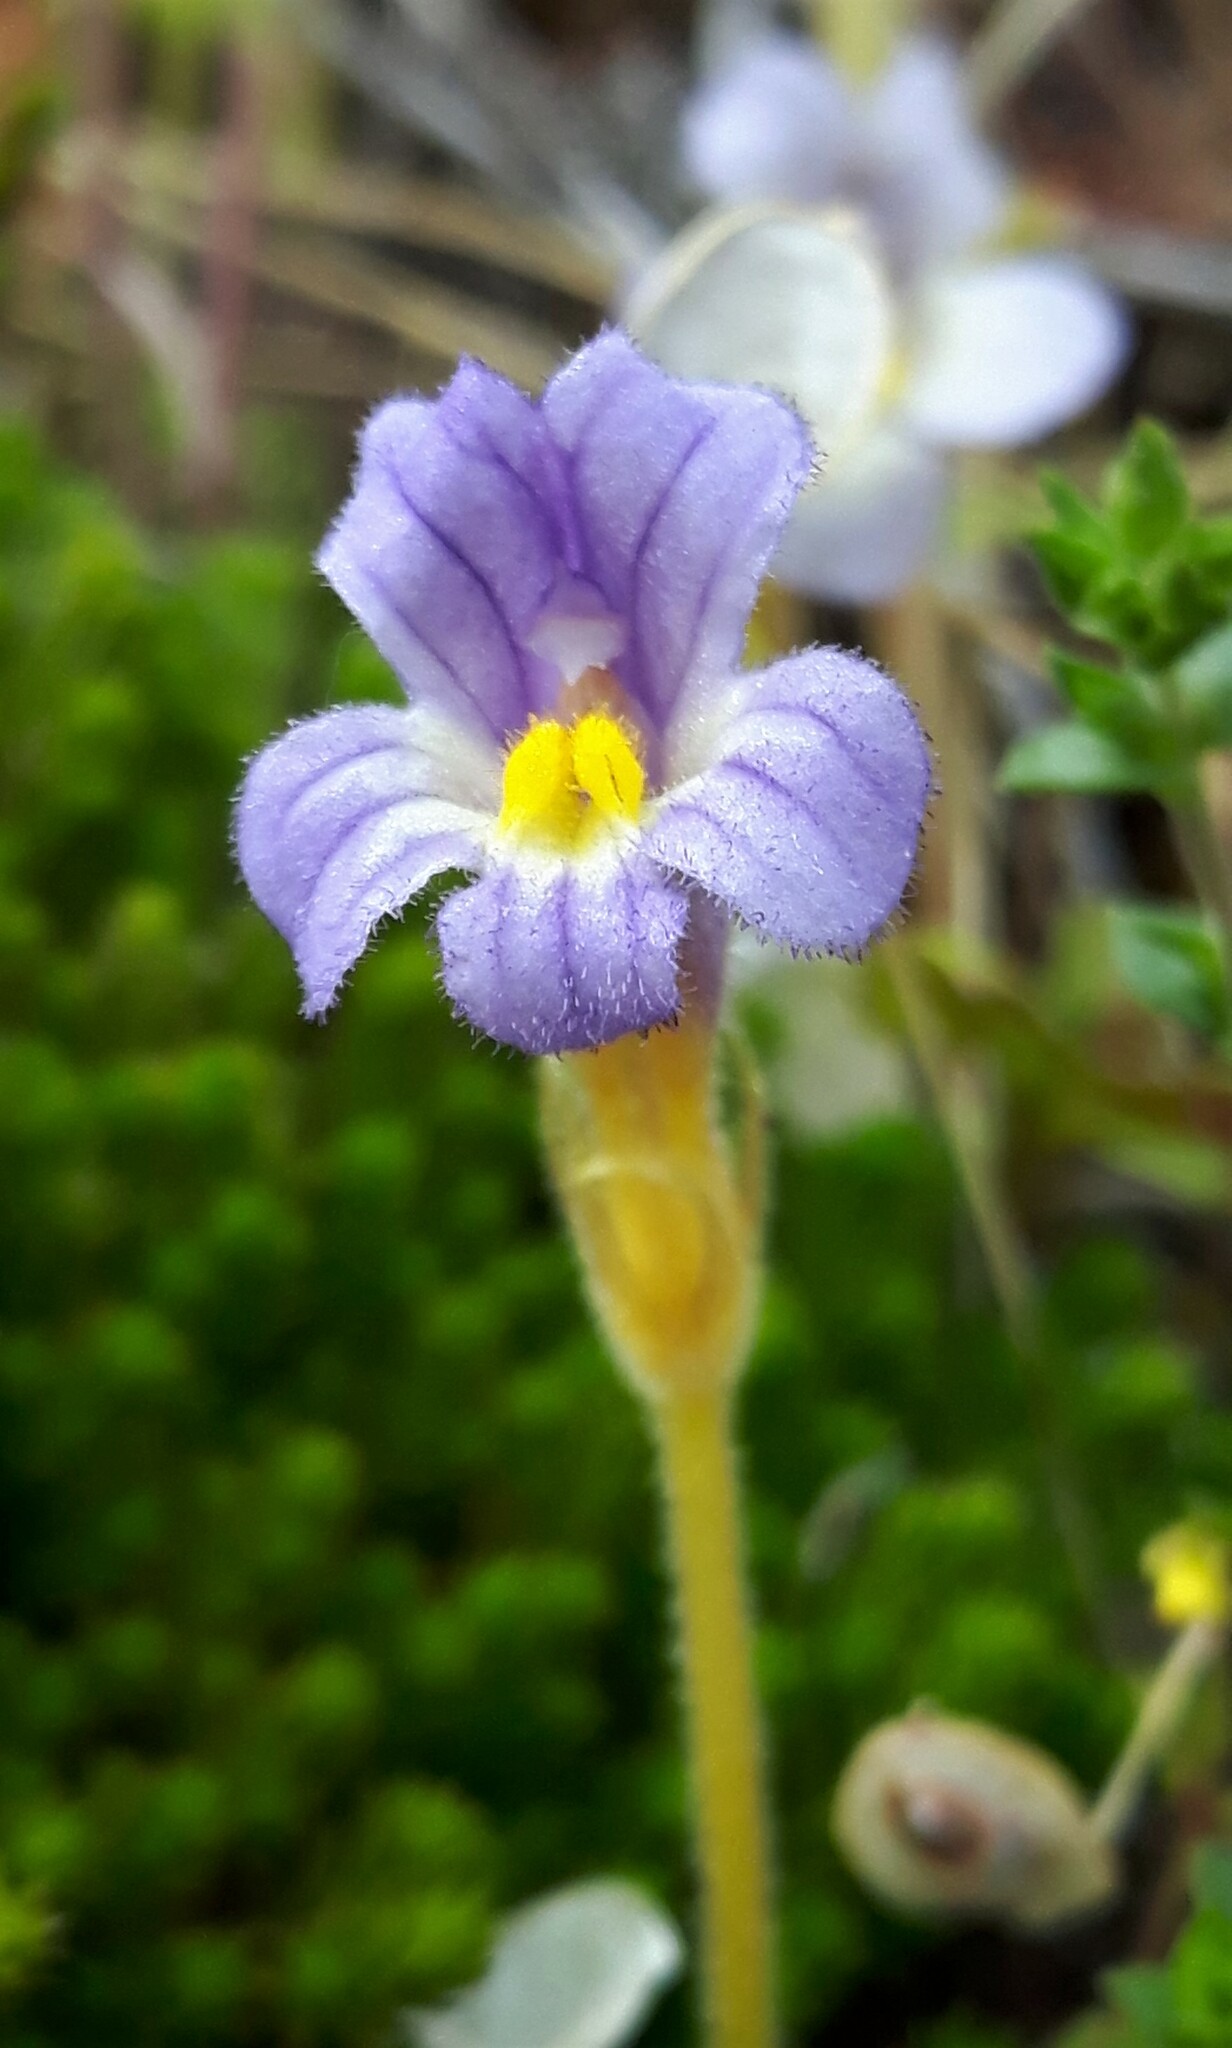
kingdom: Plantae
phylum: Tracheophyta
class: Magnoliopsida
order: Lamiales
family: Orobanchaceae
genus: Aphyllon
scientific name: Aphyllon uniflorum
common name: One-flowered broomrape
